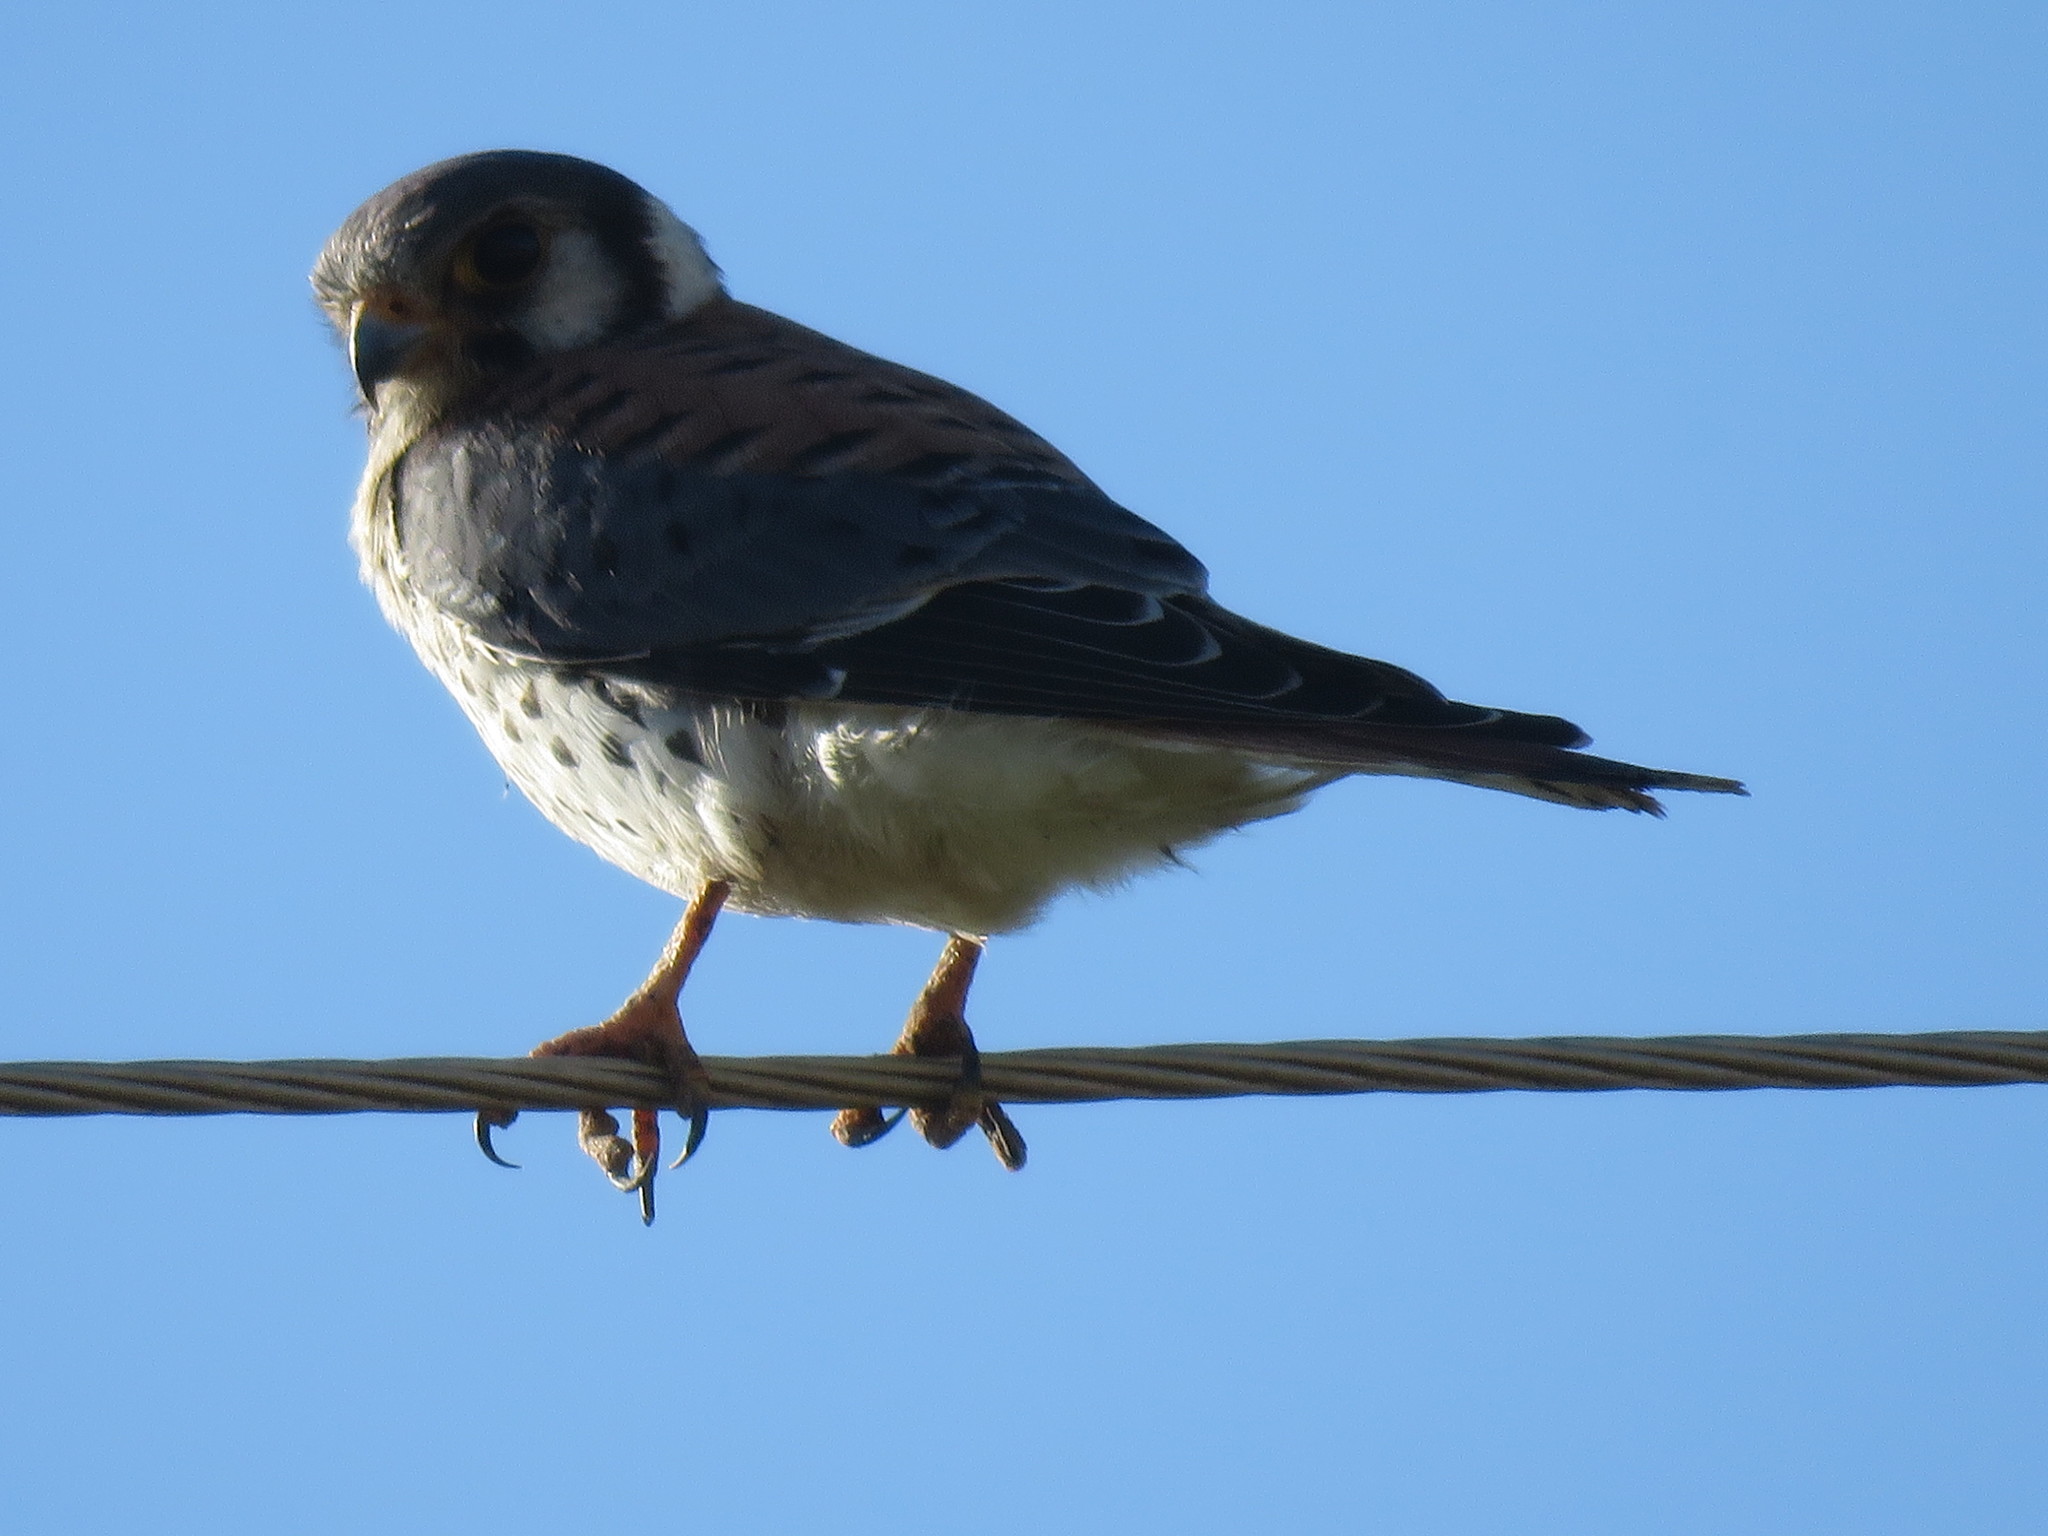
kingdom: Animalia
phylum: Chordata
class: Aves
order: Falconiformes
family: Falconidae
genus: Falco
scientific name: Falco sparverius
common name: American kestrel
